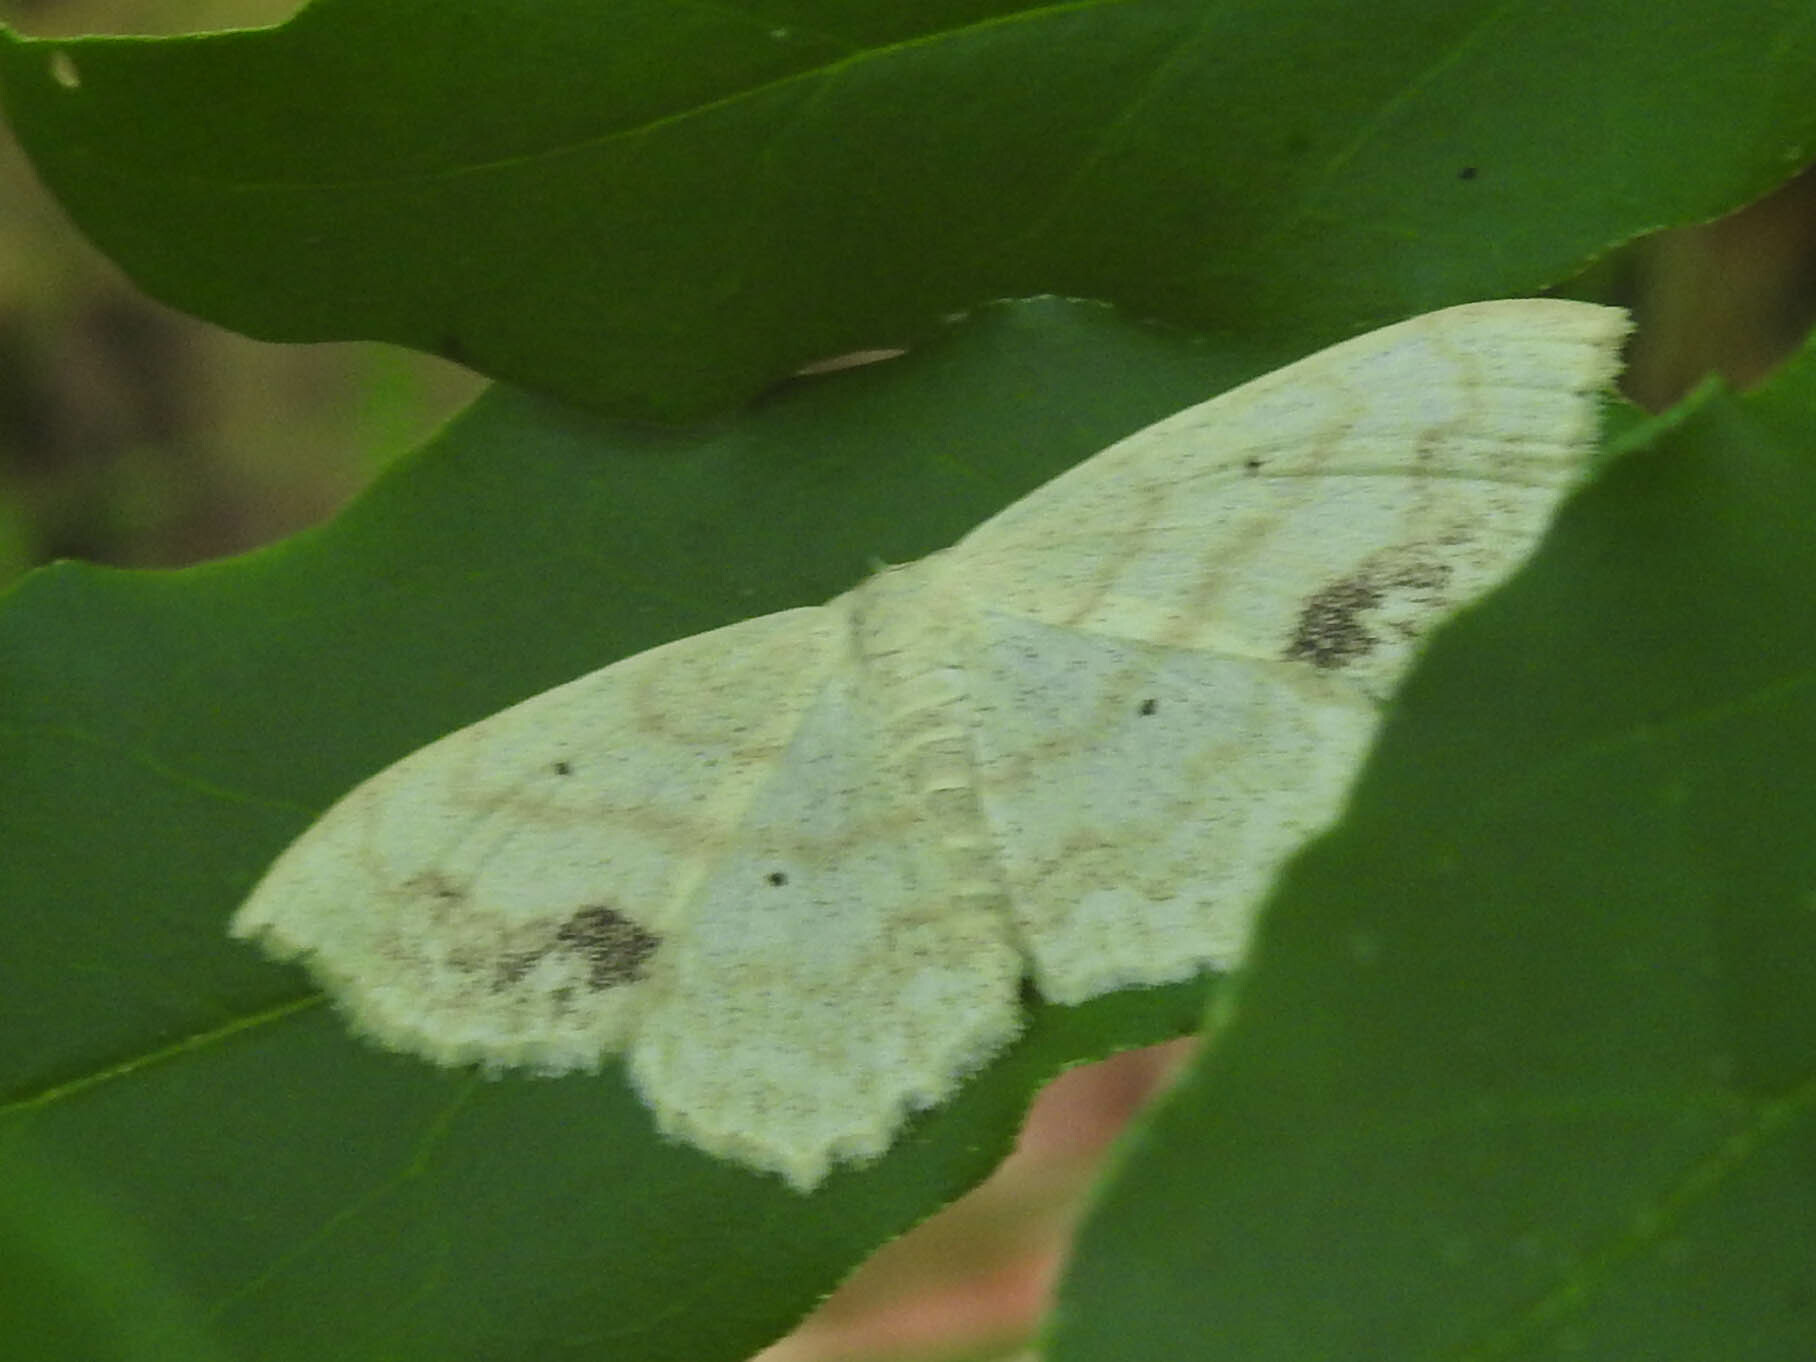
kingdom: Animalia
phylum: Arthropoda
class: Insecta
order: Lepidoptera
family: Geometridae
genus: Scopula
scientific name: Scopula limboundata
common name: Large lace border
